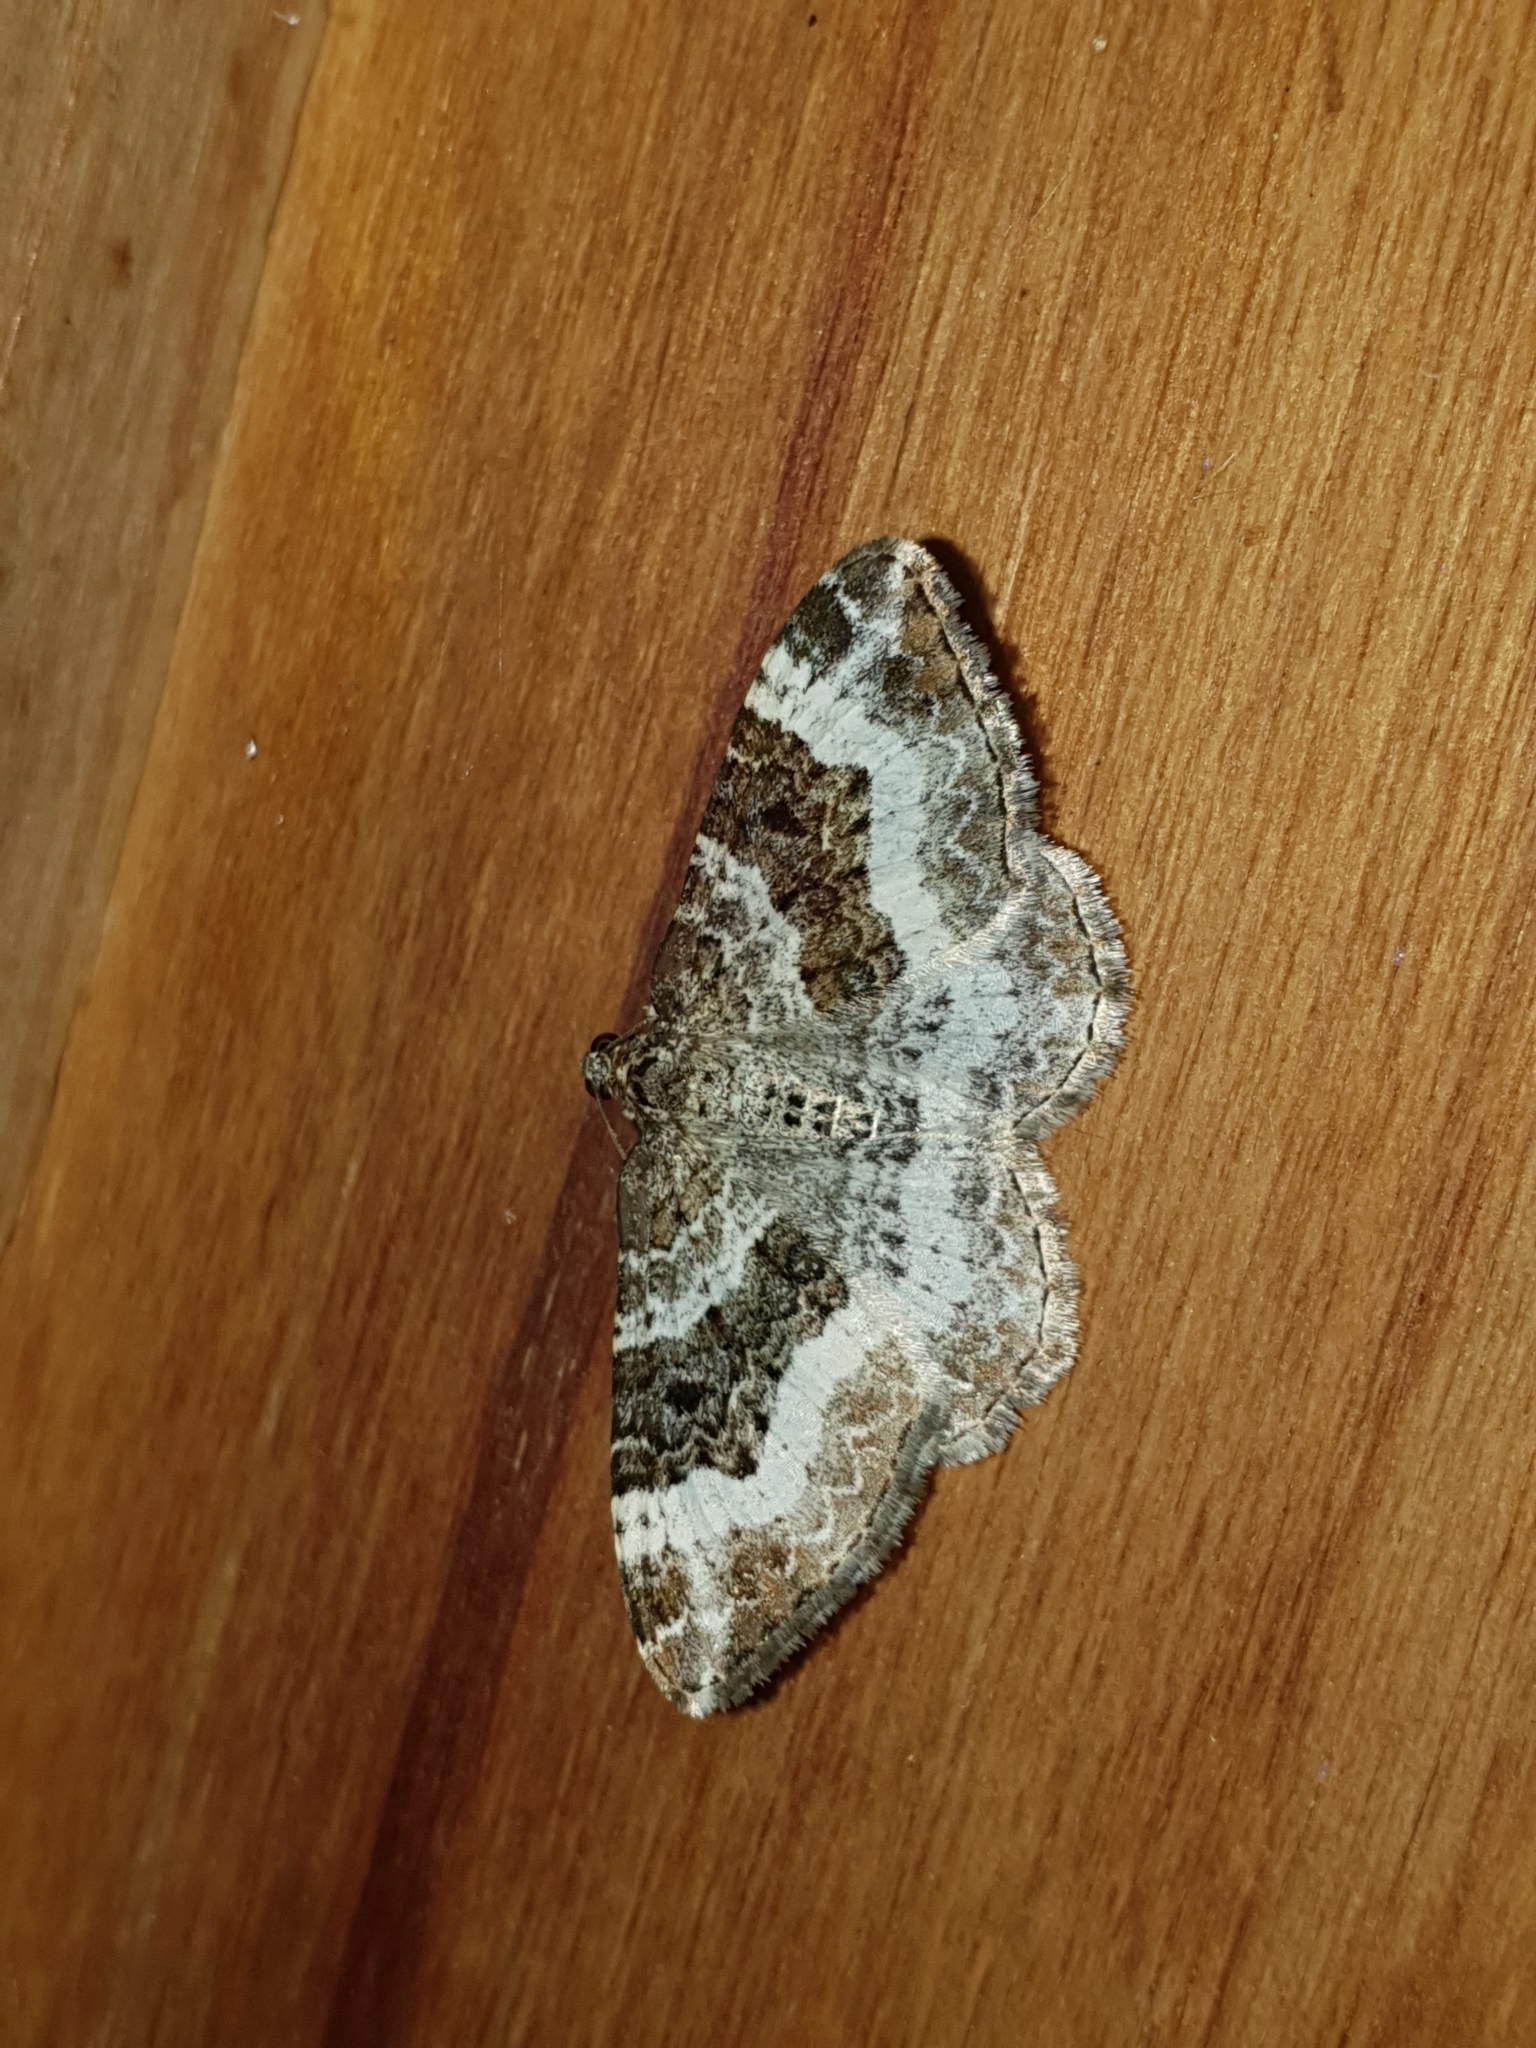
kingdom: Animalia
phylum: Arthropoda
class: Insecta
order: Lepidoptera
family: Geometridae
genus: Epirrhoe
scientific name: Epirrhoe alternata
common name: Common carpet
